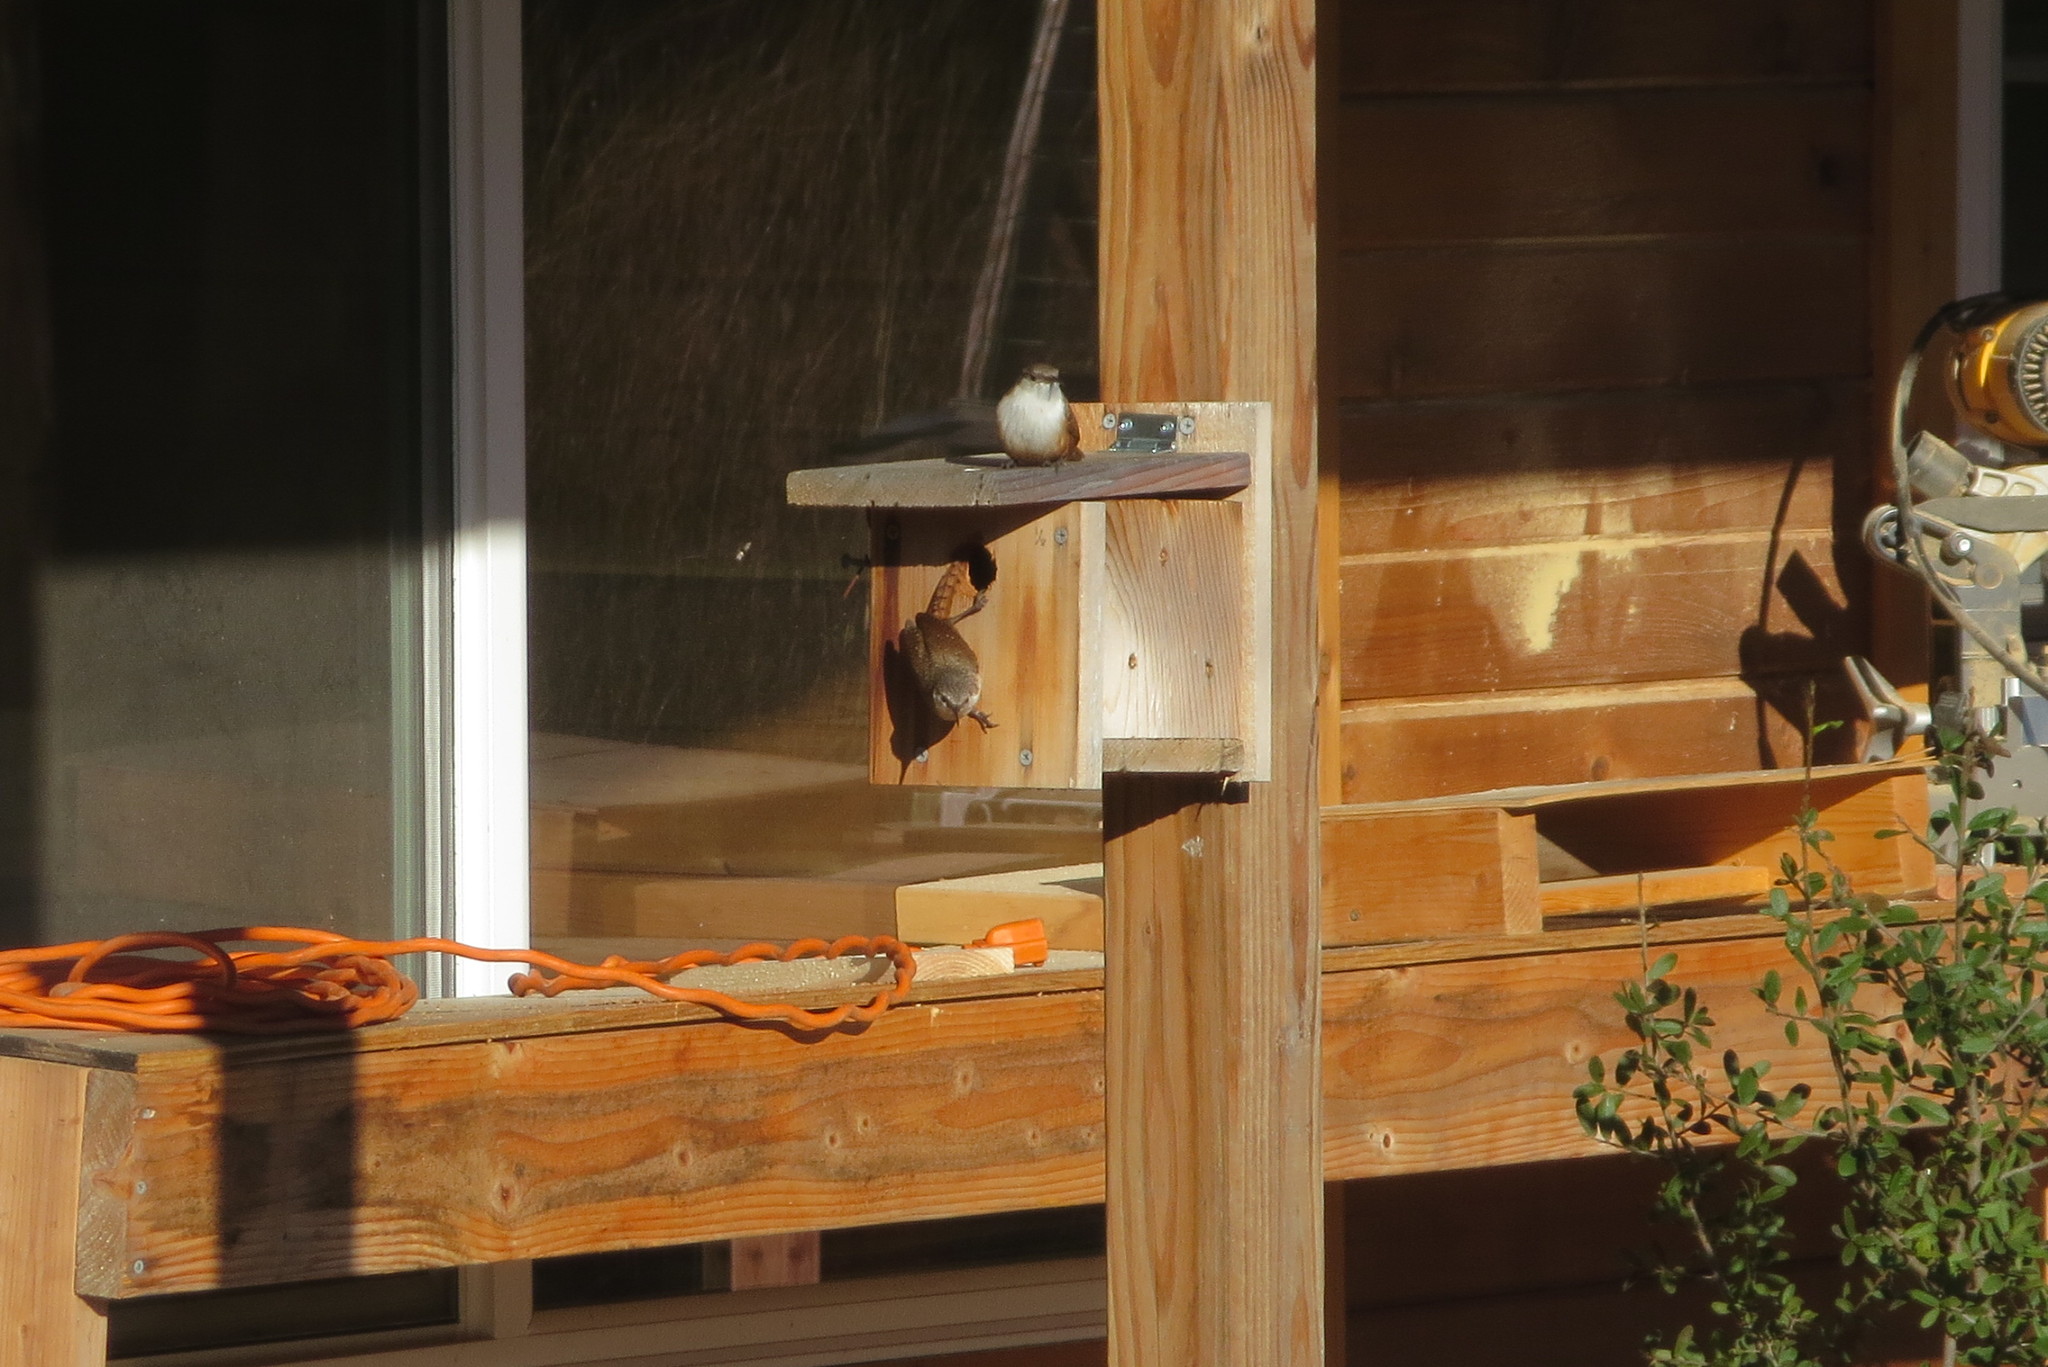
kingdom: Animalia
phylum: Chordata
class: Aves
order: Passeriformes
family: Troglodytidae
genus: Catherpes
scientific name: Catherpes mexicanus
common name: Canyon wren
